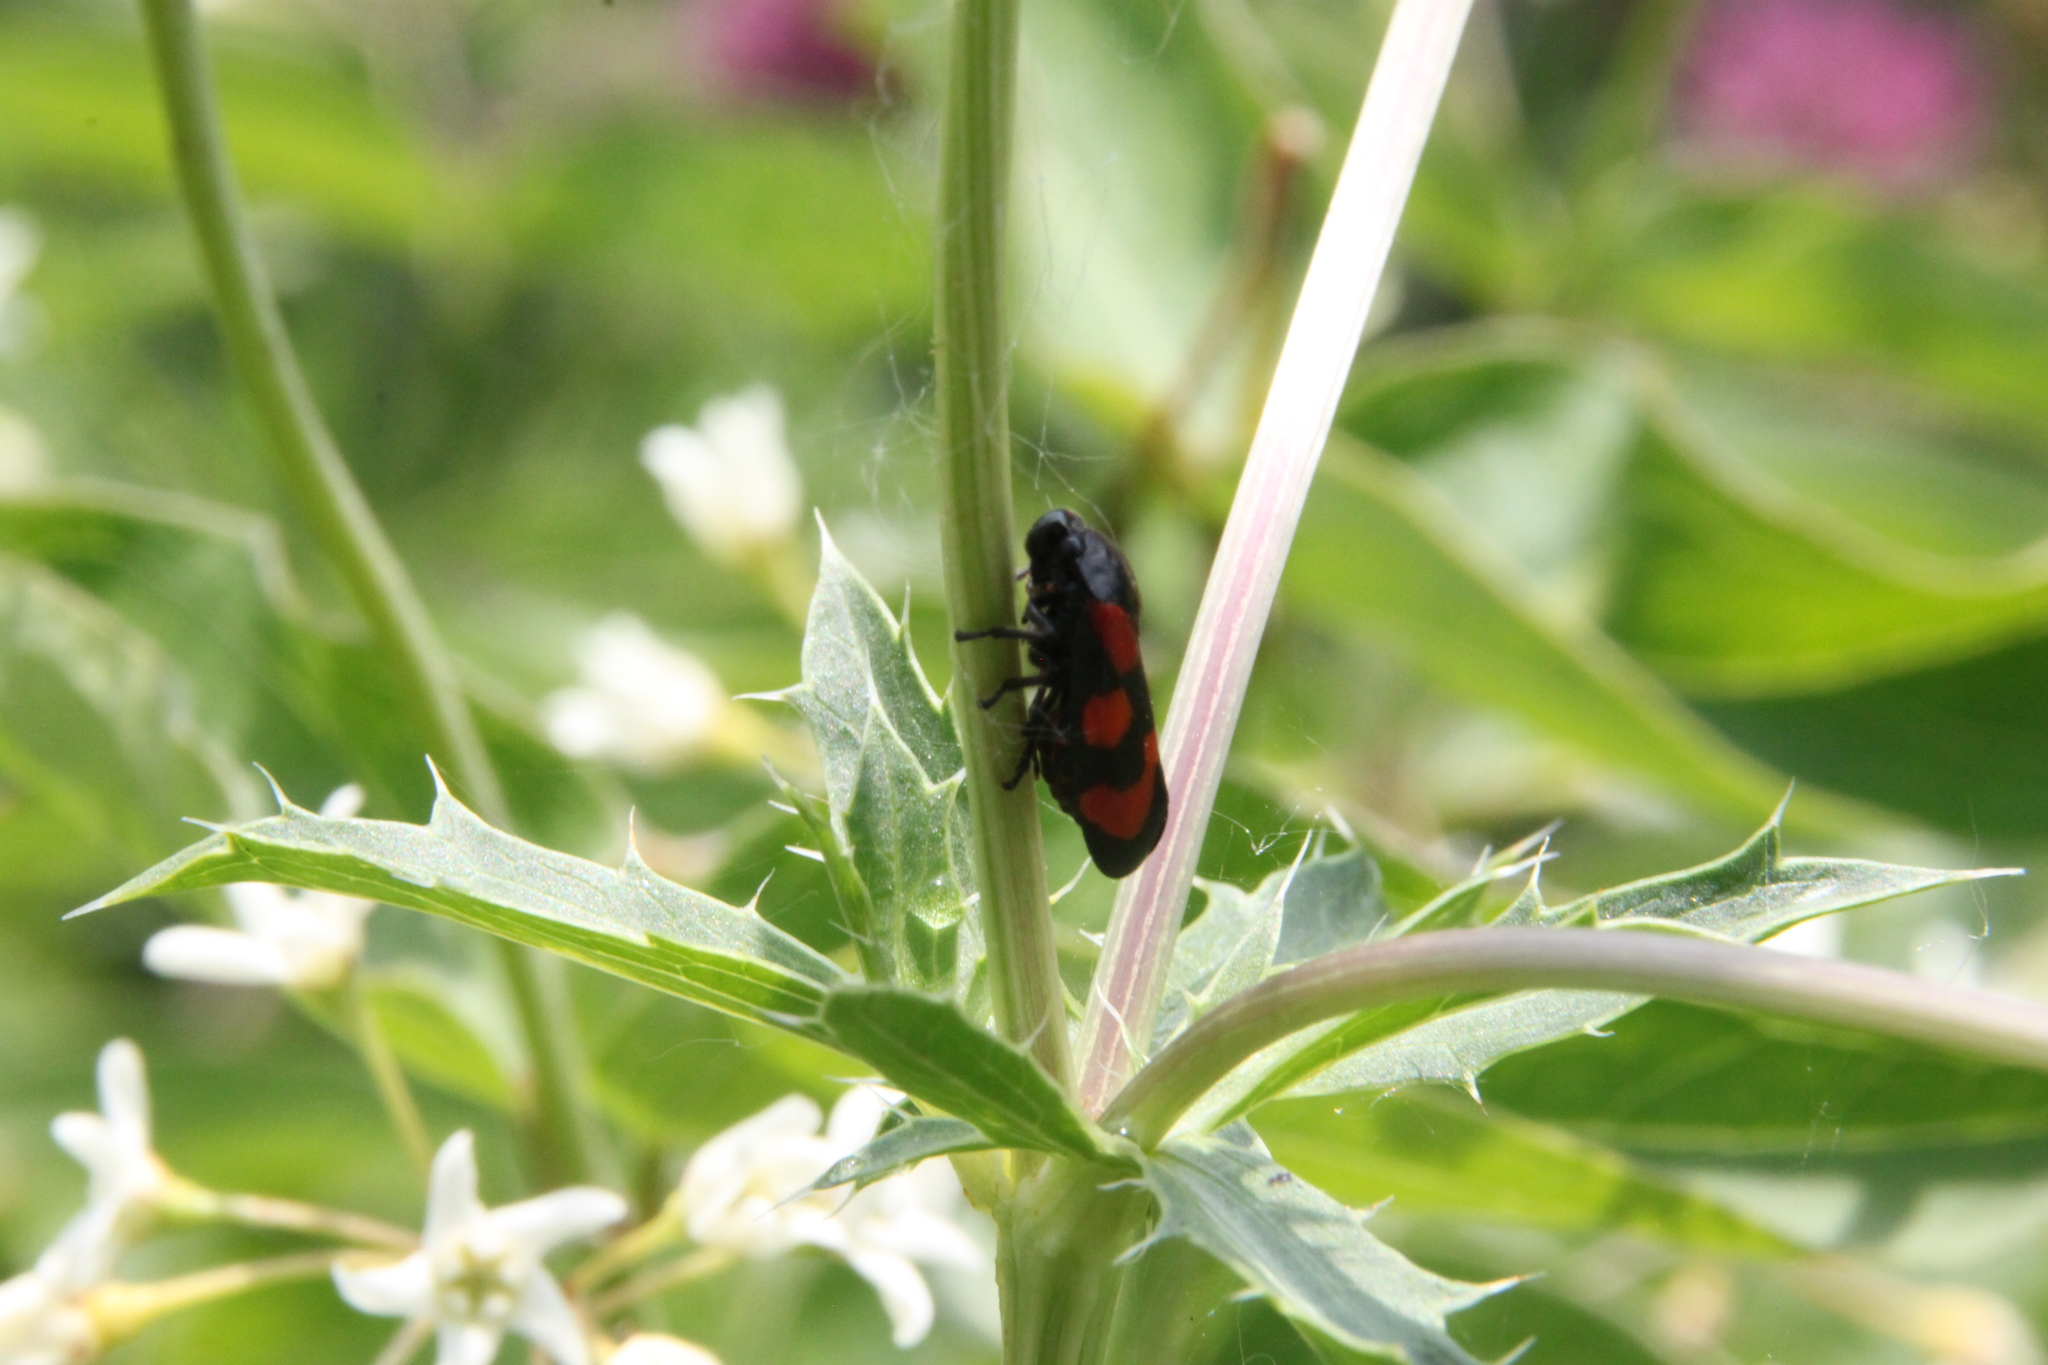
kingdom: Animalia
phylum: Arthropoda
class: Insecta
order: Hemiptera
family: Cercopidae
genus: Cercopis
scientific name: Cercopis vulnerata
